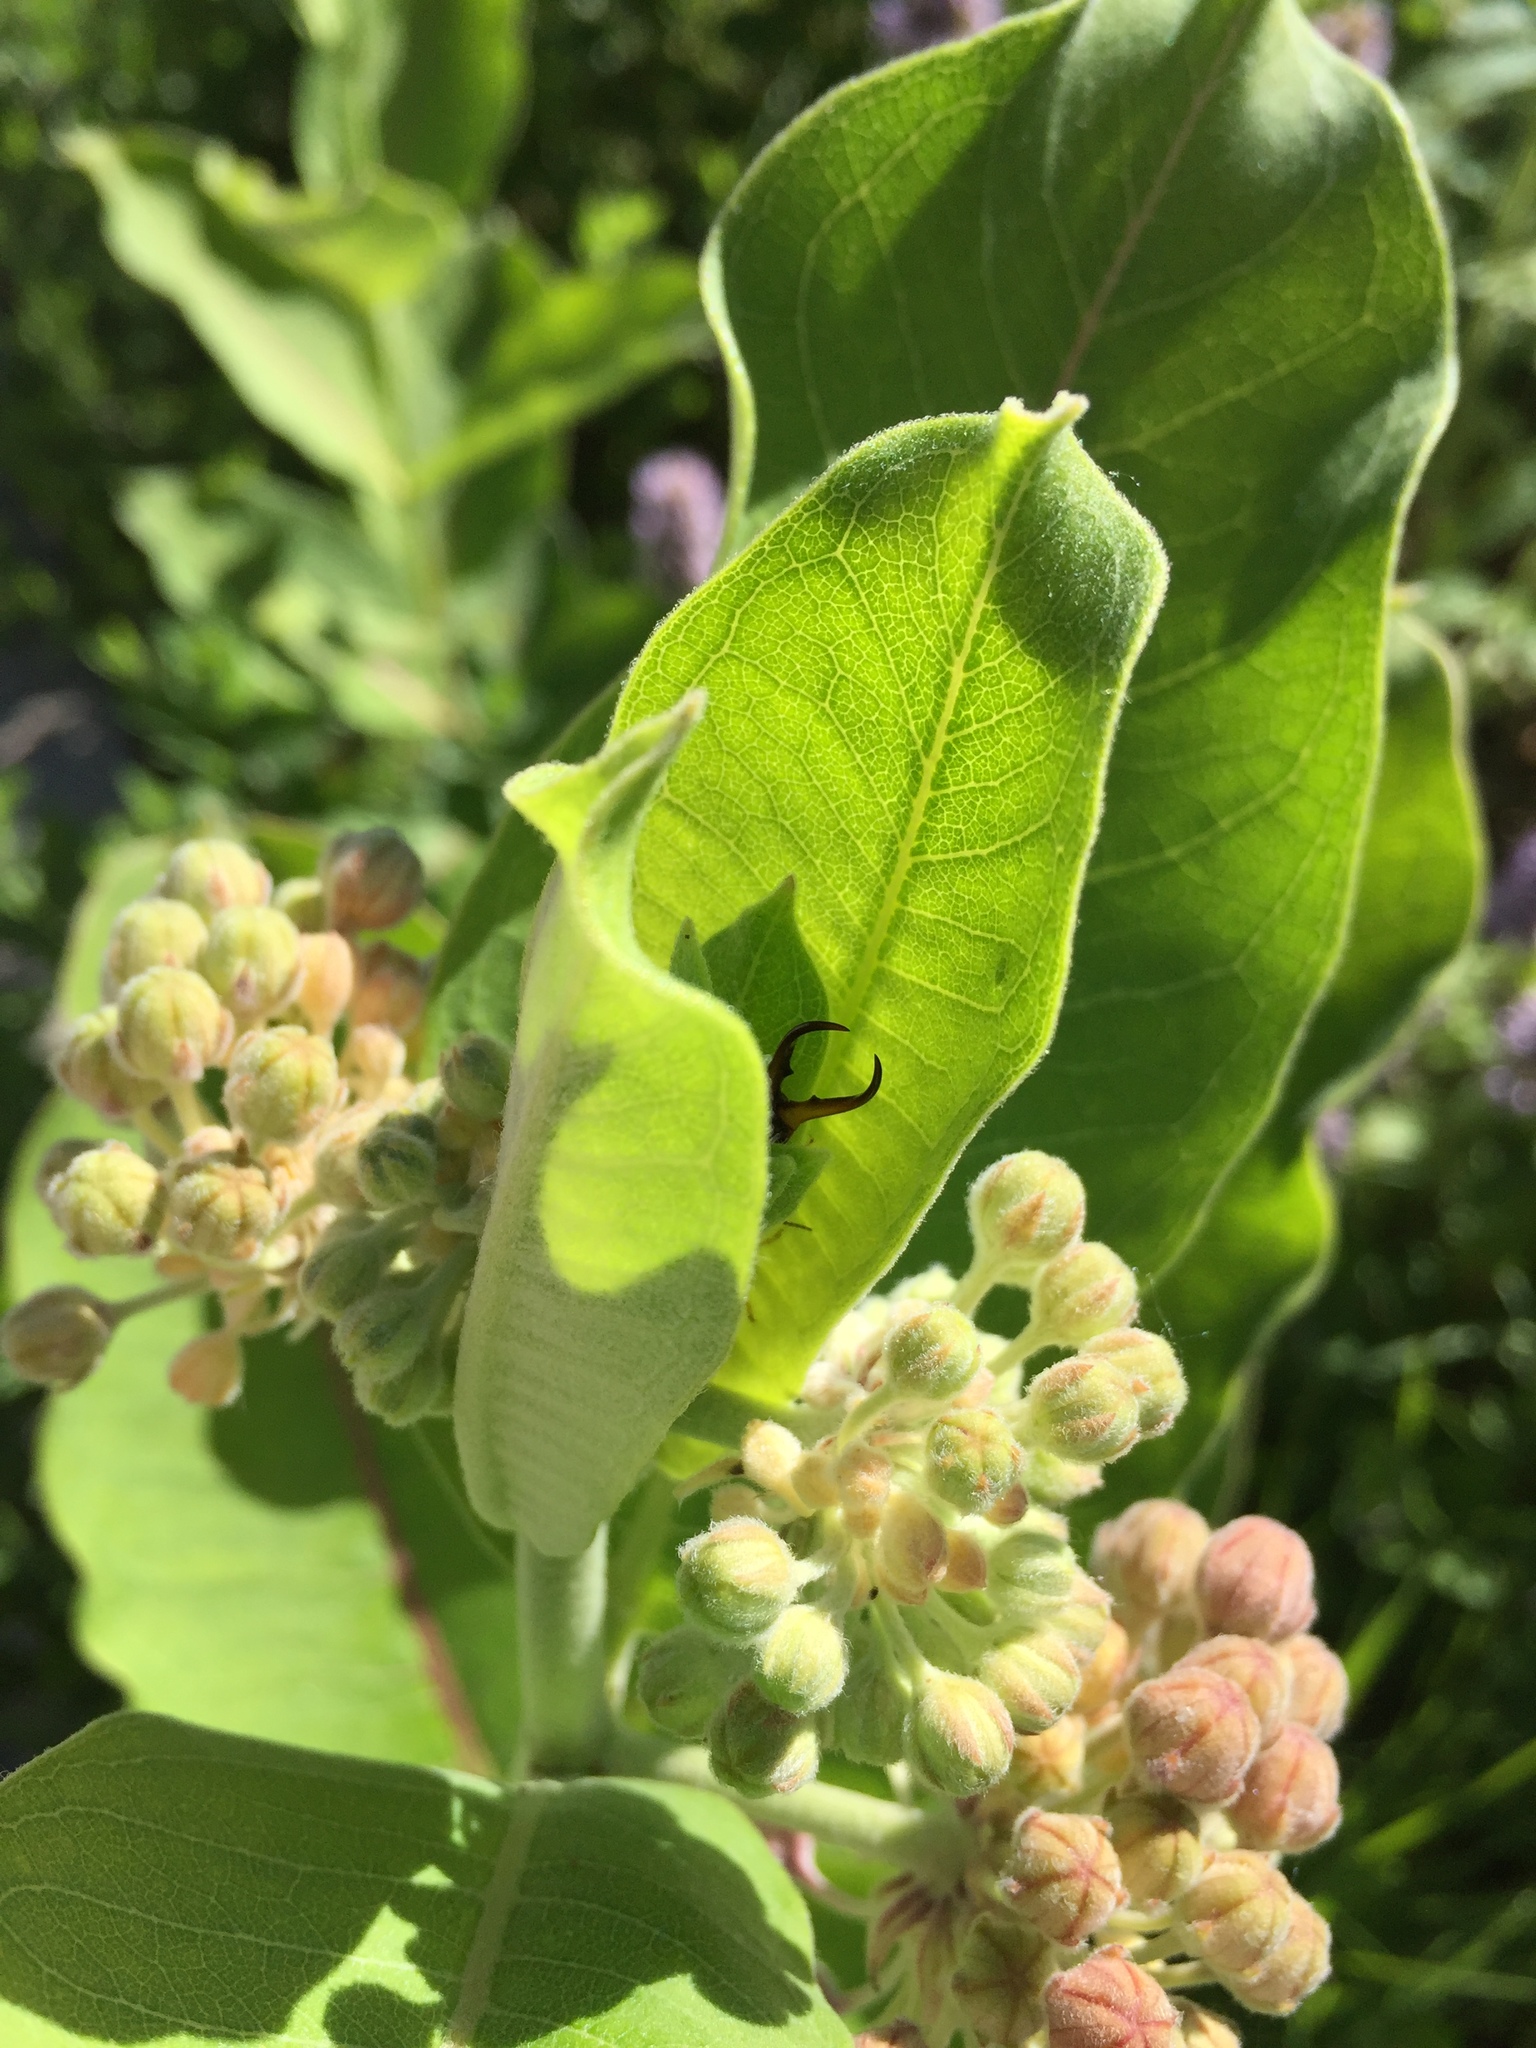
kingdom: Animalia
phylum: Arthropoda
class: Insecta
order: Dermaptera
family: Forficulidae
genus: Forficula
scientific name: Forficula
